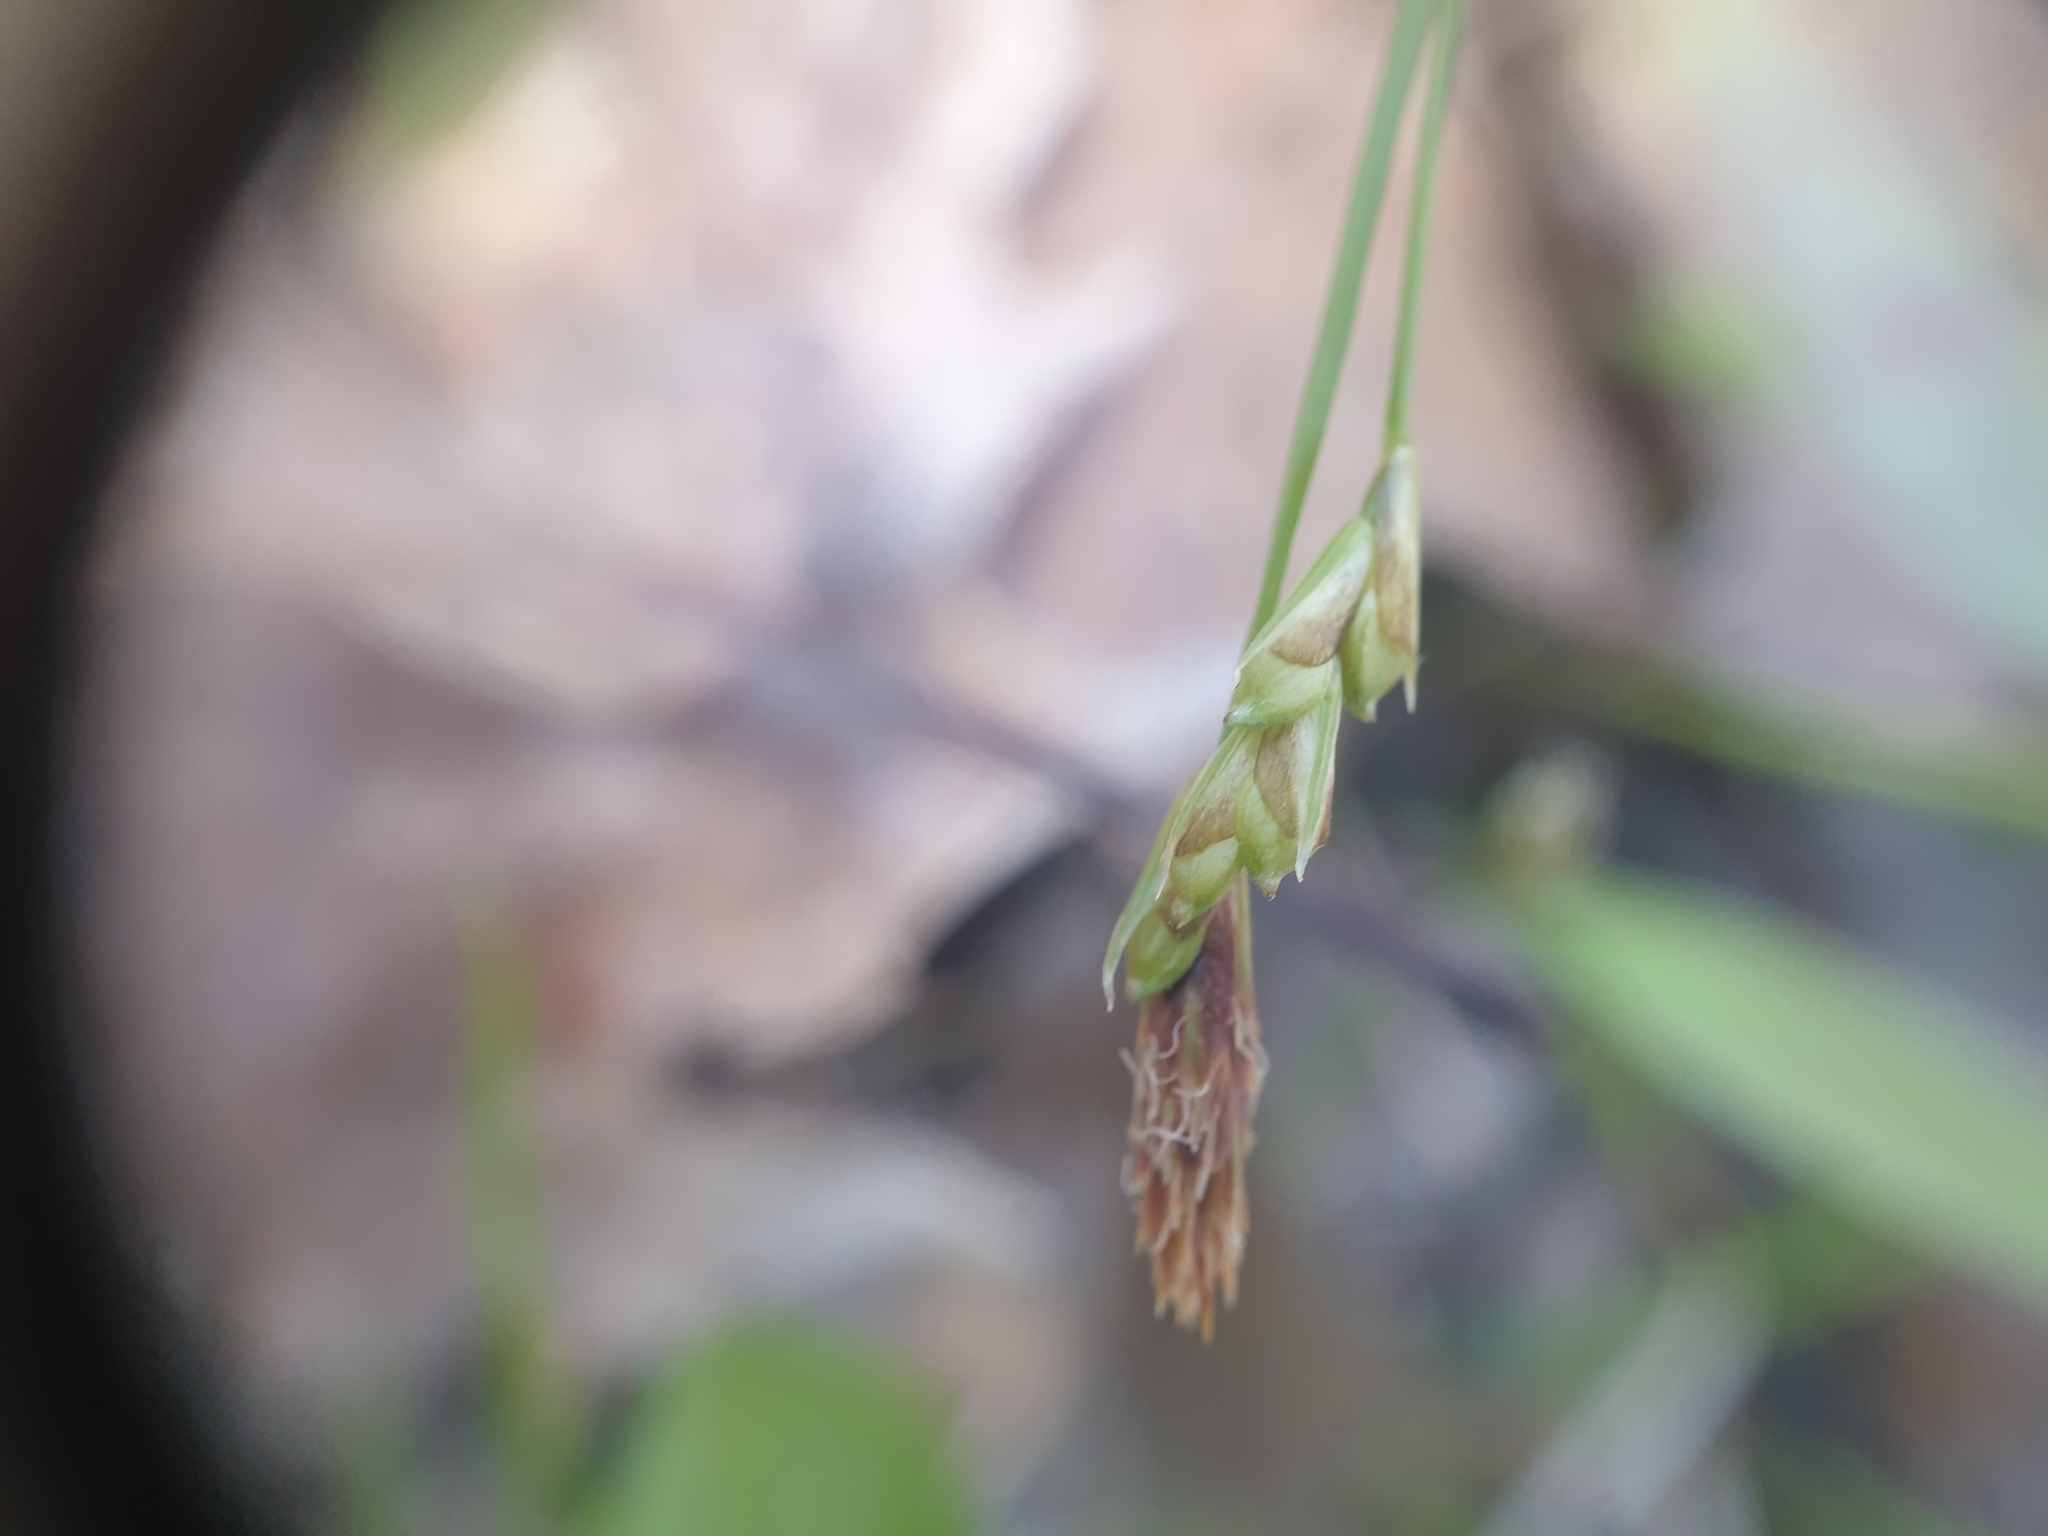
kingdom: Plantae
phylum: Tracheophyta
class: Liliopsida
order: Poales
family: Cyperaceae
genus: Carex
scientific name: Carex pedunculata
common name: Pedunculate sedge
